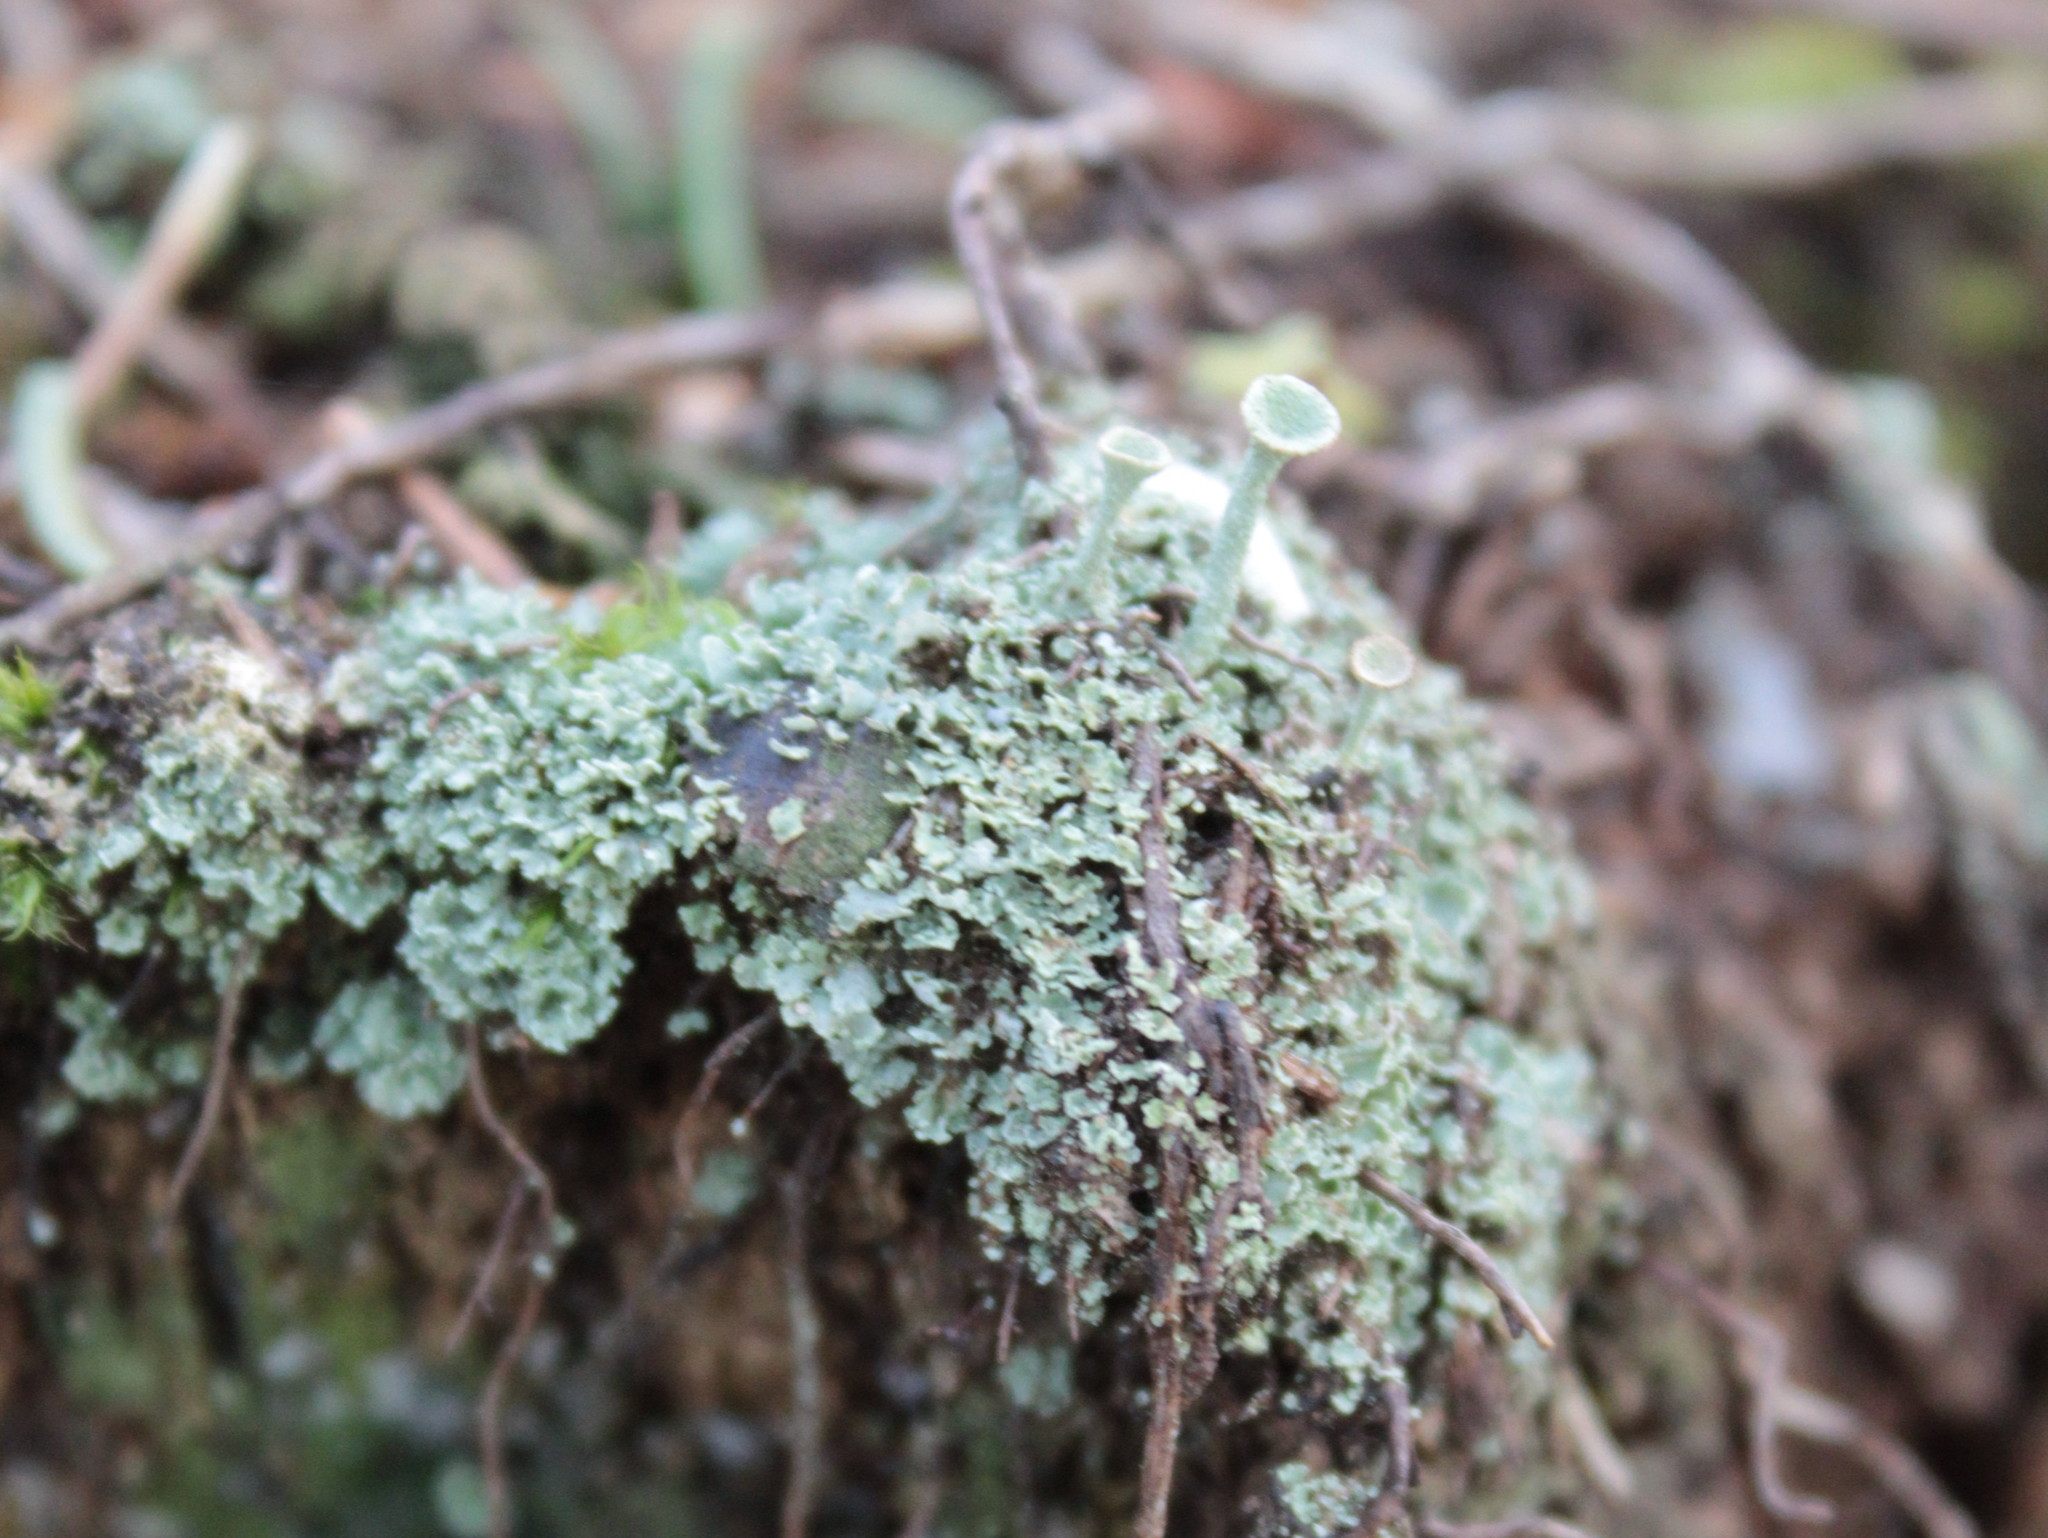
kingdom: Fungi
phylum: Ascomycota
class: Lecanoromycetes
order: Lecanorales
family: Cladoniaceae
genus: Cladonia
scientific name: Cladonia fimbriata
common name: Powdered trumpet lichen
